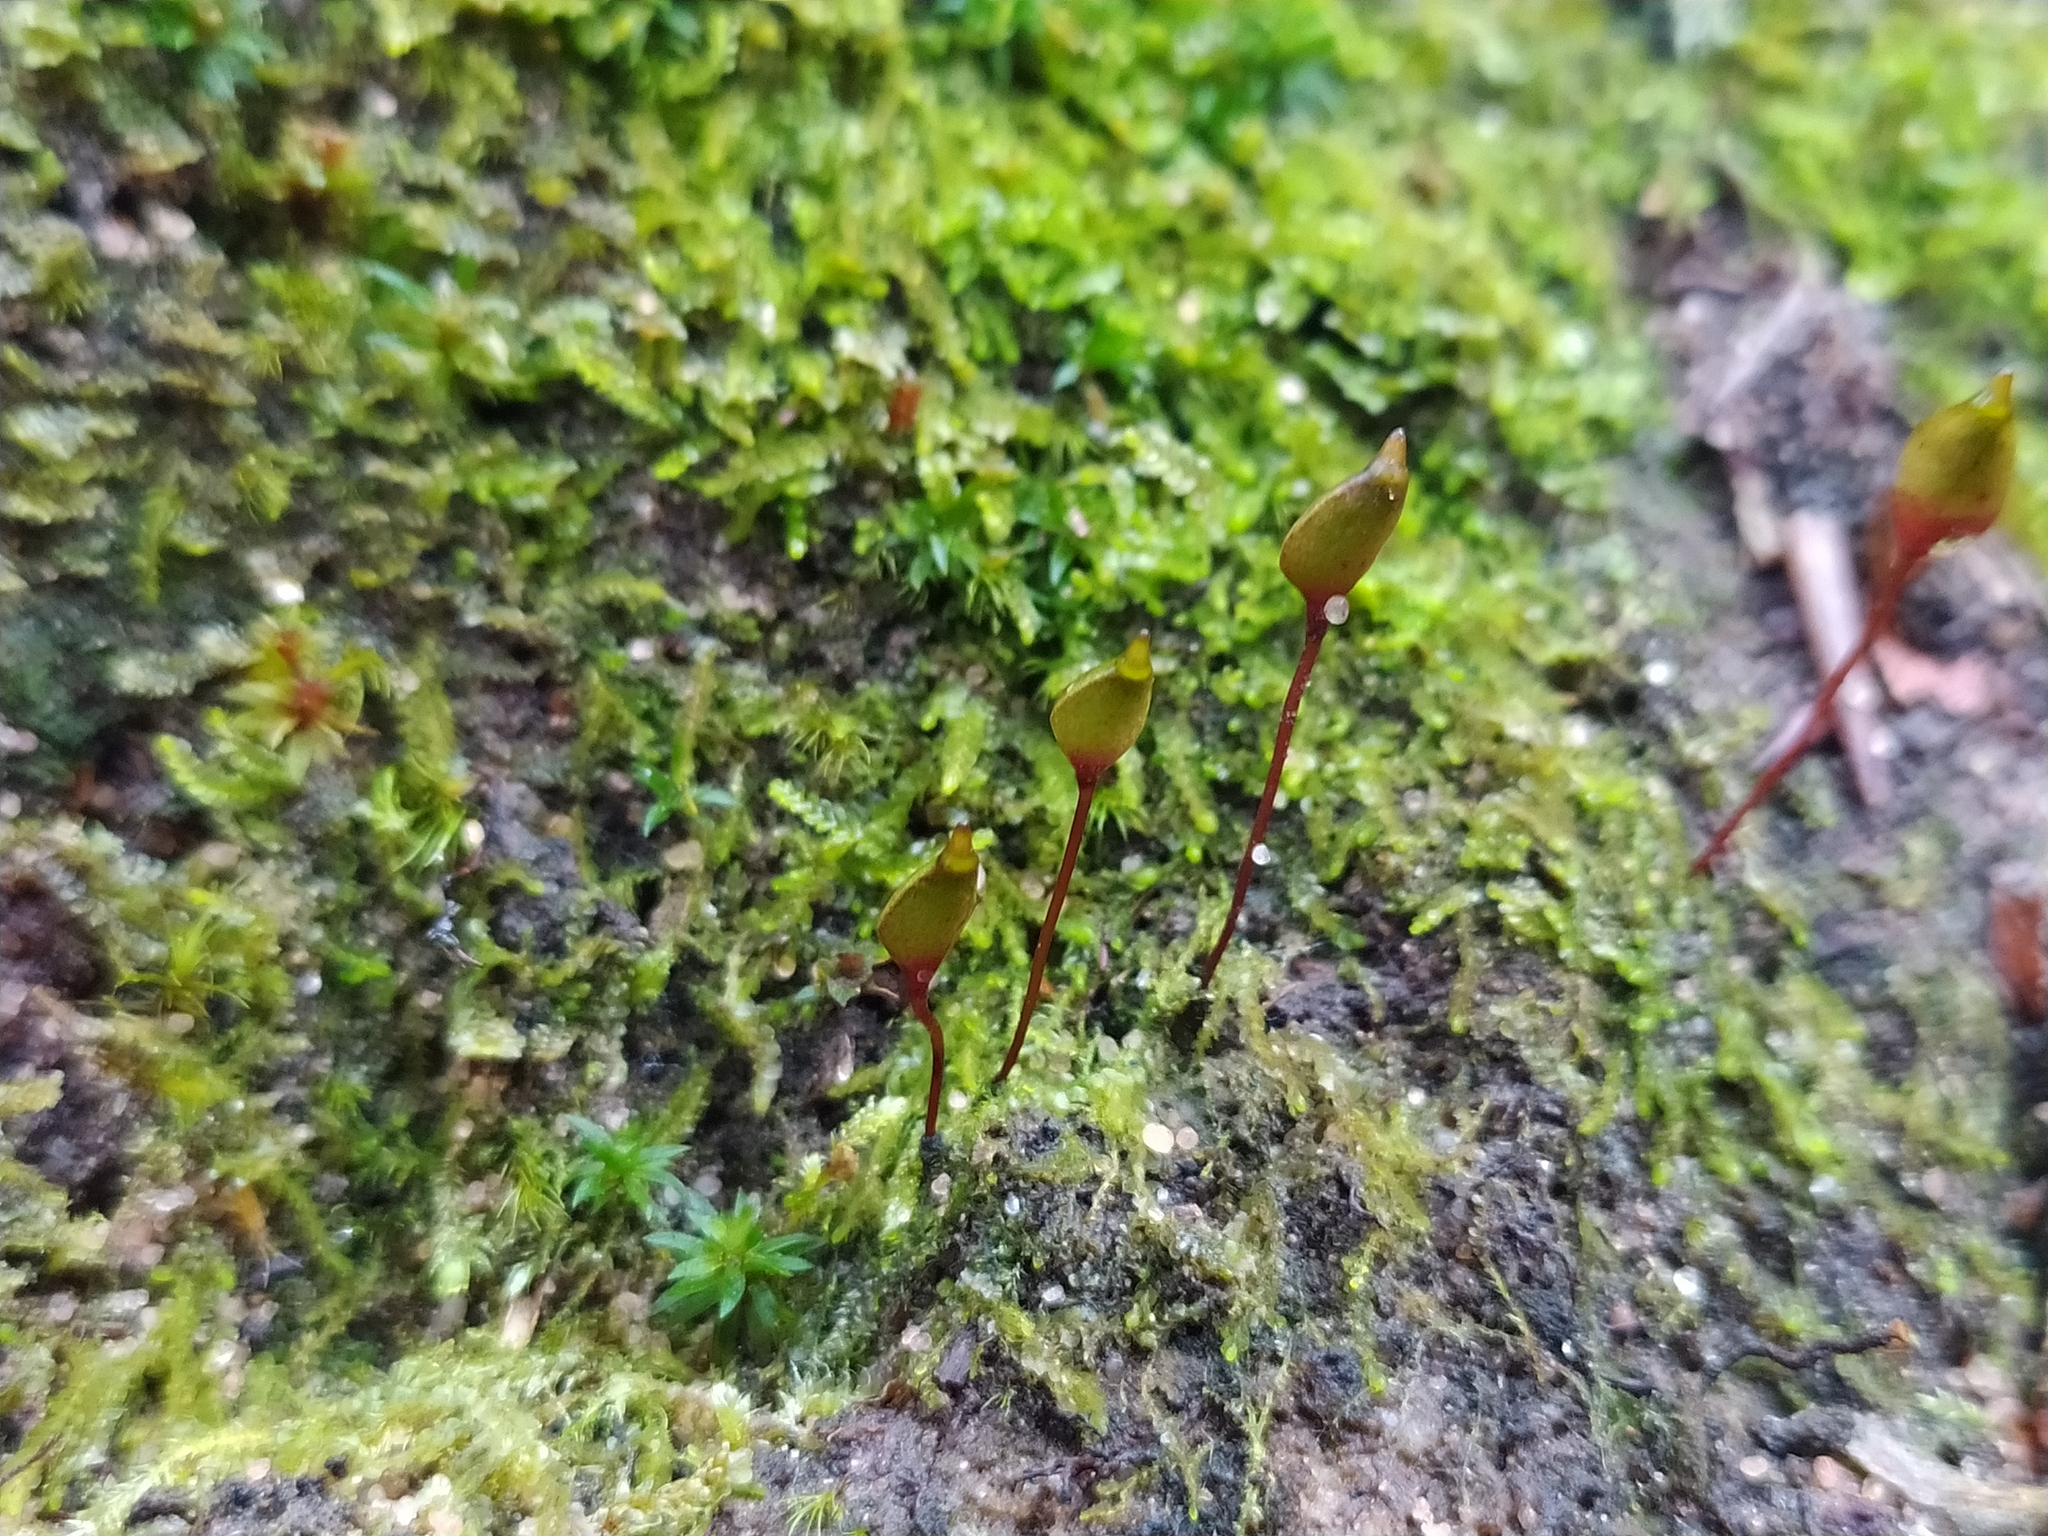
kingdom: Plantae
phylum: Bryophyta
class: Bryopsida
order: Buxbaumiales
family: Buxbaumiaceae
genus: Buxbaumia
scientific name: Buxbaumia aphylla
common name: Brown shield-moss
